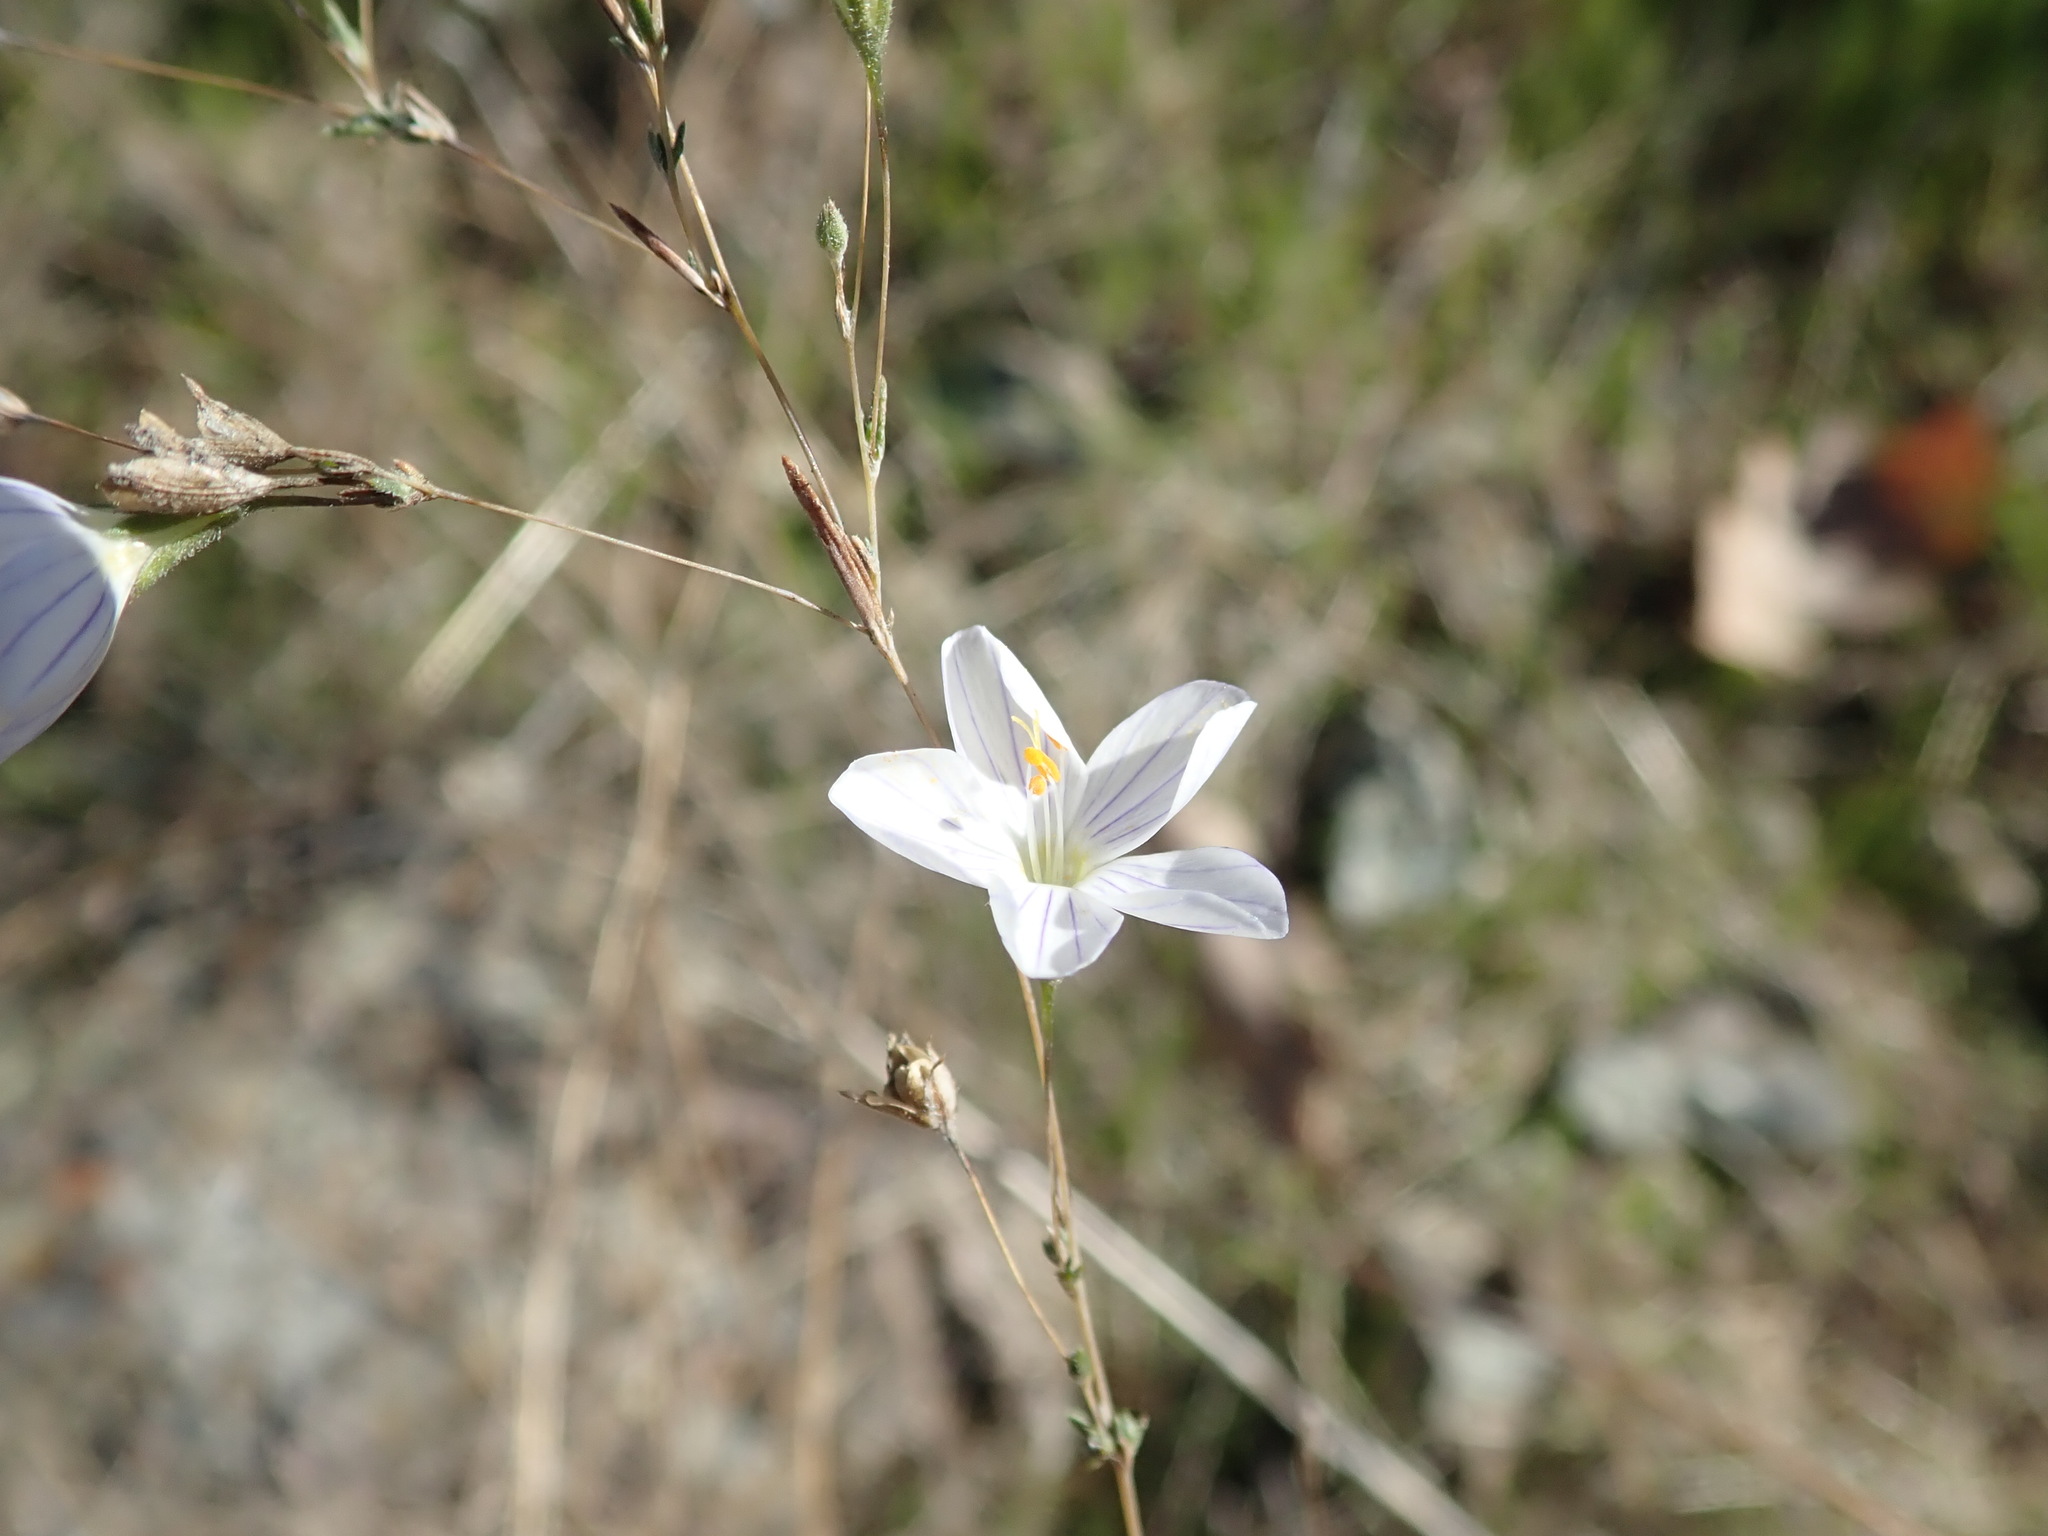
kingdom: Plantae
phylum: Tracheophyta
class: Magnoliopsida
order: Ericales
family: Polemoniaceae
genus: Leptosiphon
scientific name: Leptosiphon liniflorus
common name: Narrowflower flaxflower
